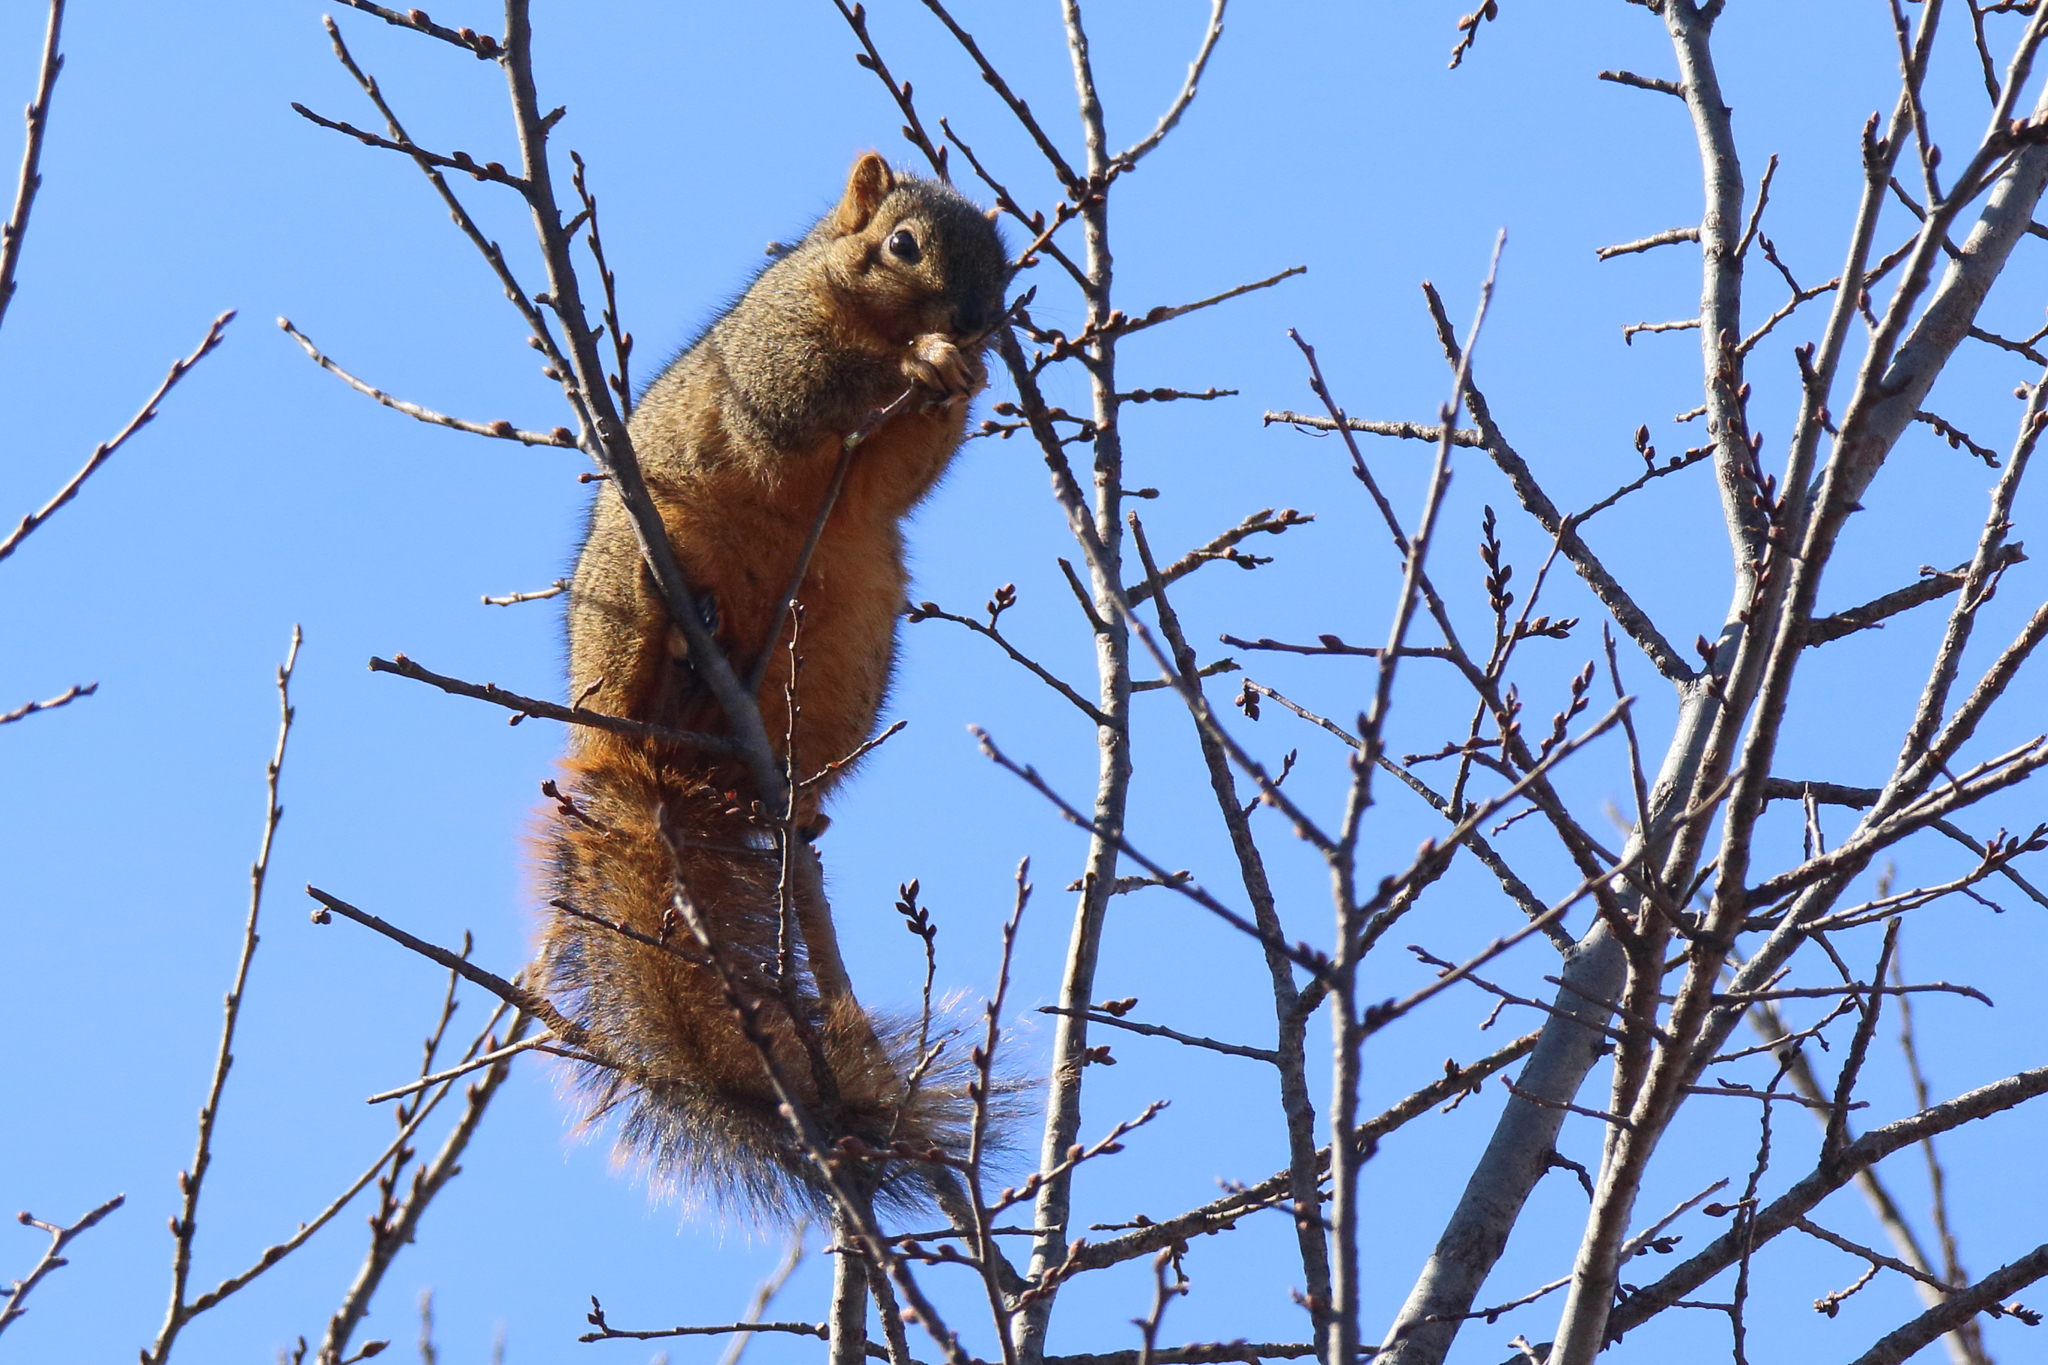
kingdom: Animalia
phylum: Chordata
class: Mammalia
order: Rodentia
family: Sciuridae
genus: Sciurus
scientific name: Sciurus niger
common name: Fox squirrel
